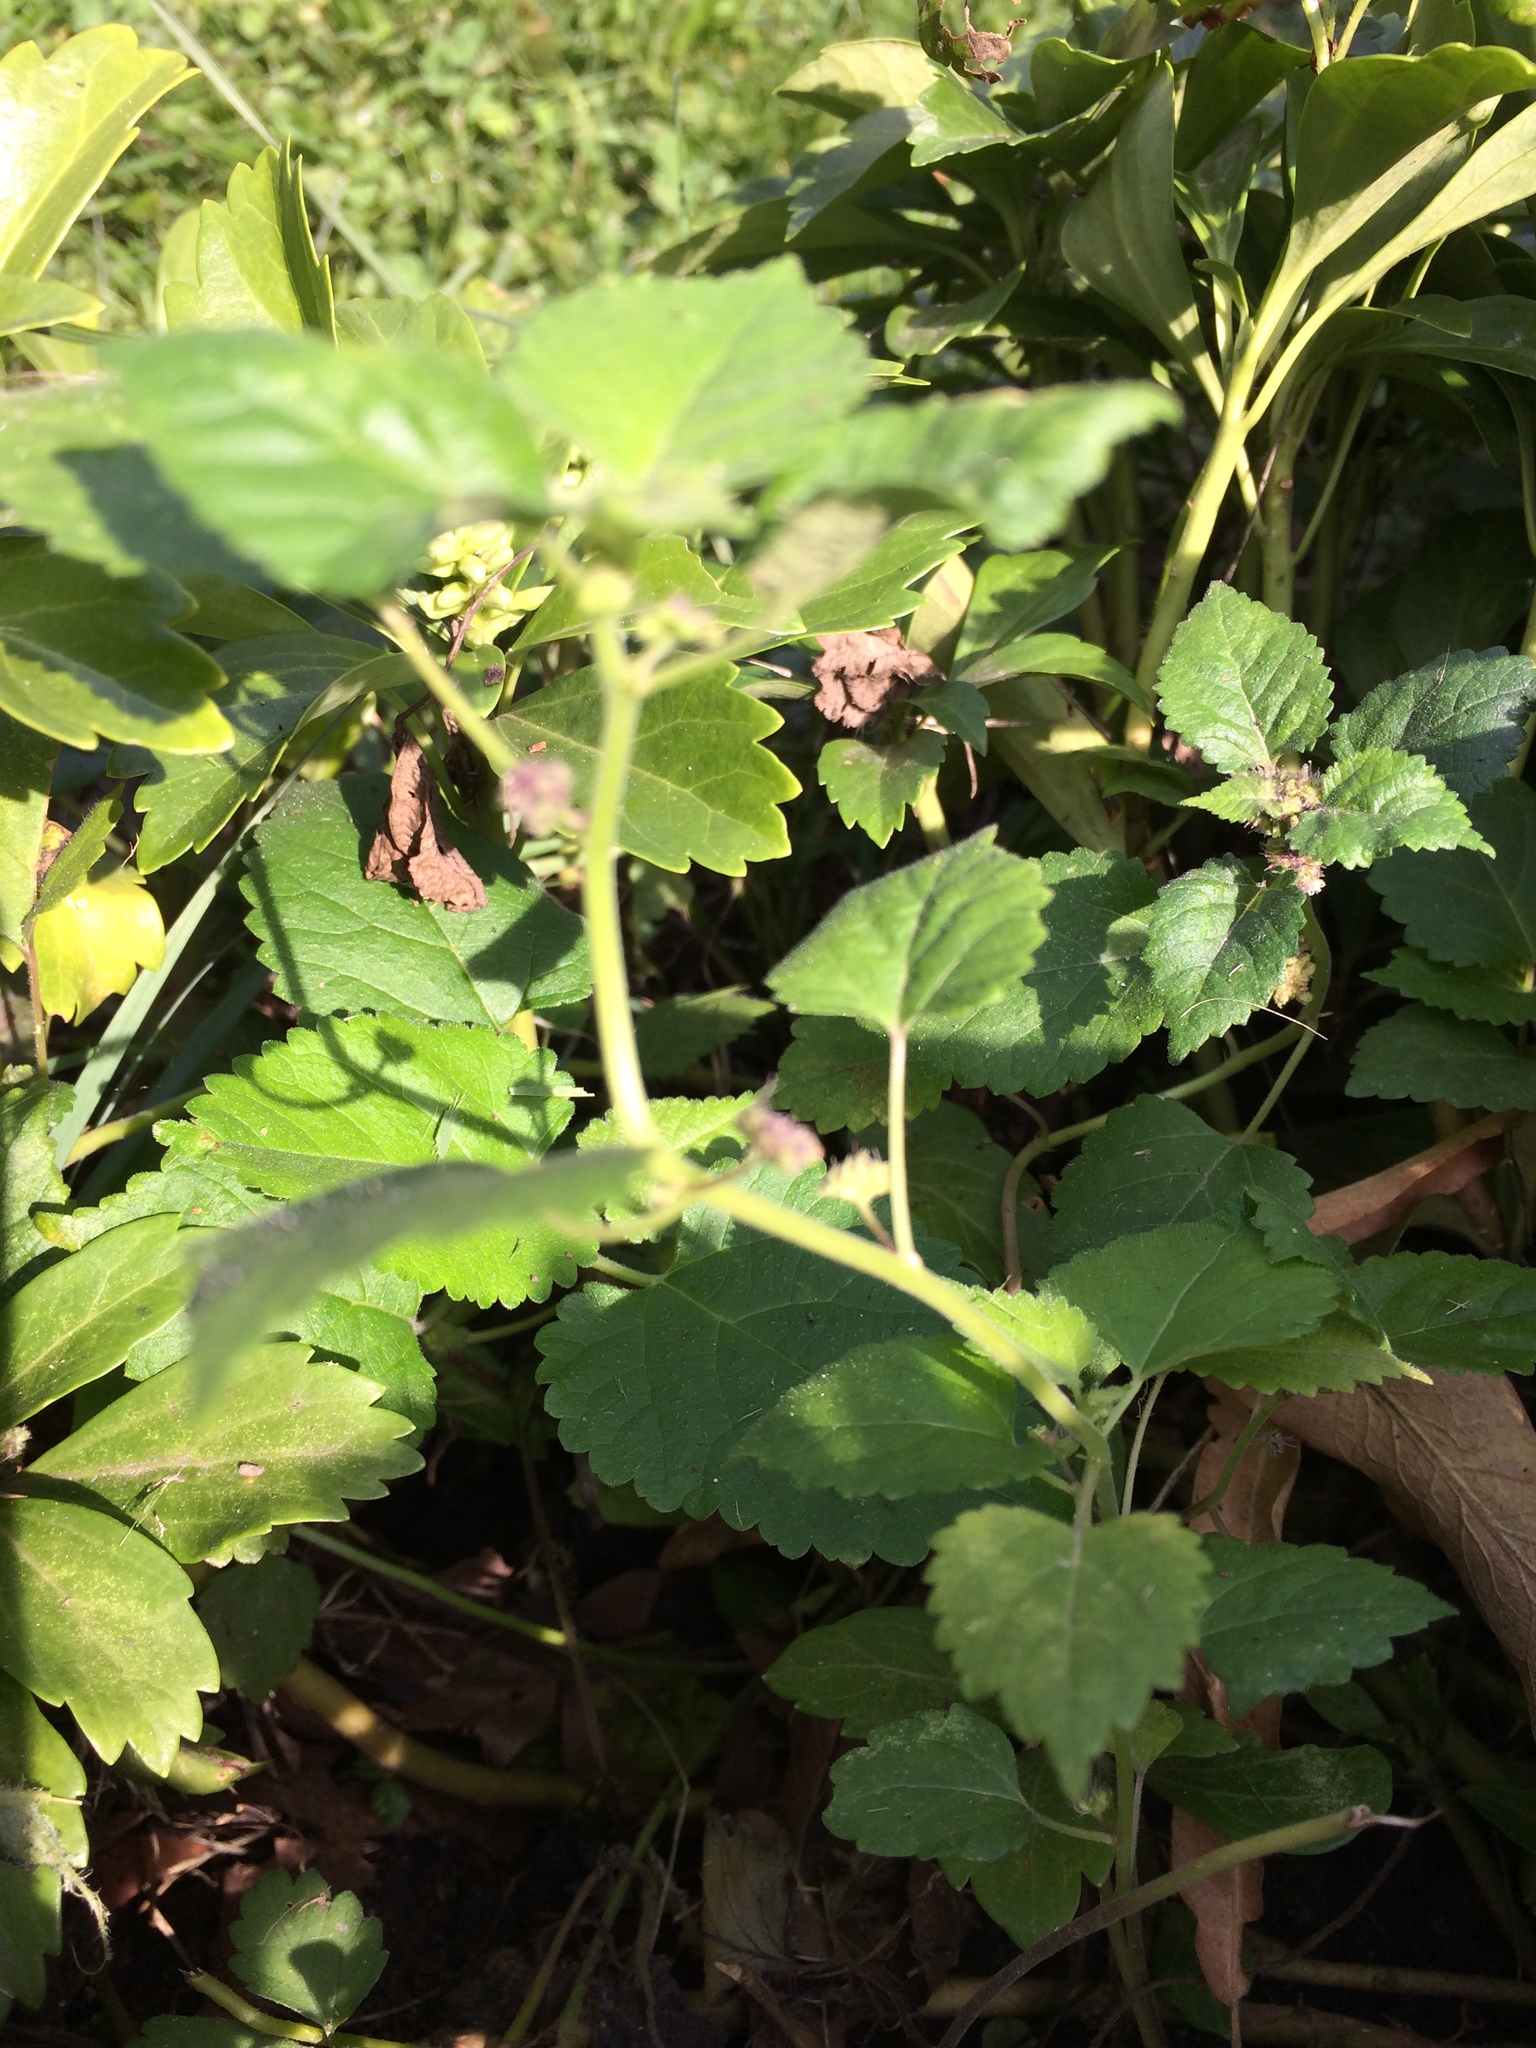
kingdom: Plantae
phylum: Tracheophyta
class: Magnoliopsida
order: Rosales
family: Moraceae
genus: Fatoua
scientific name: Fatoua villosa
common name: Hairy crabweed
